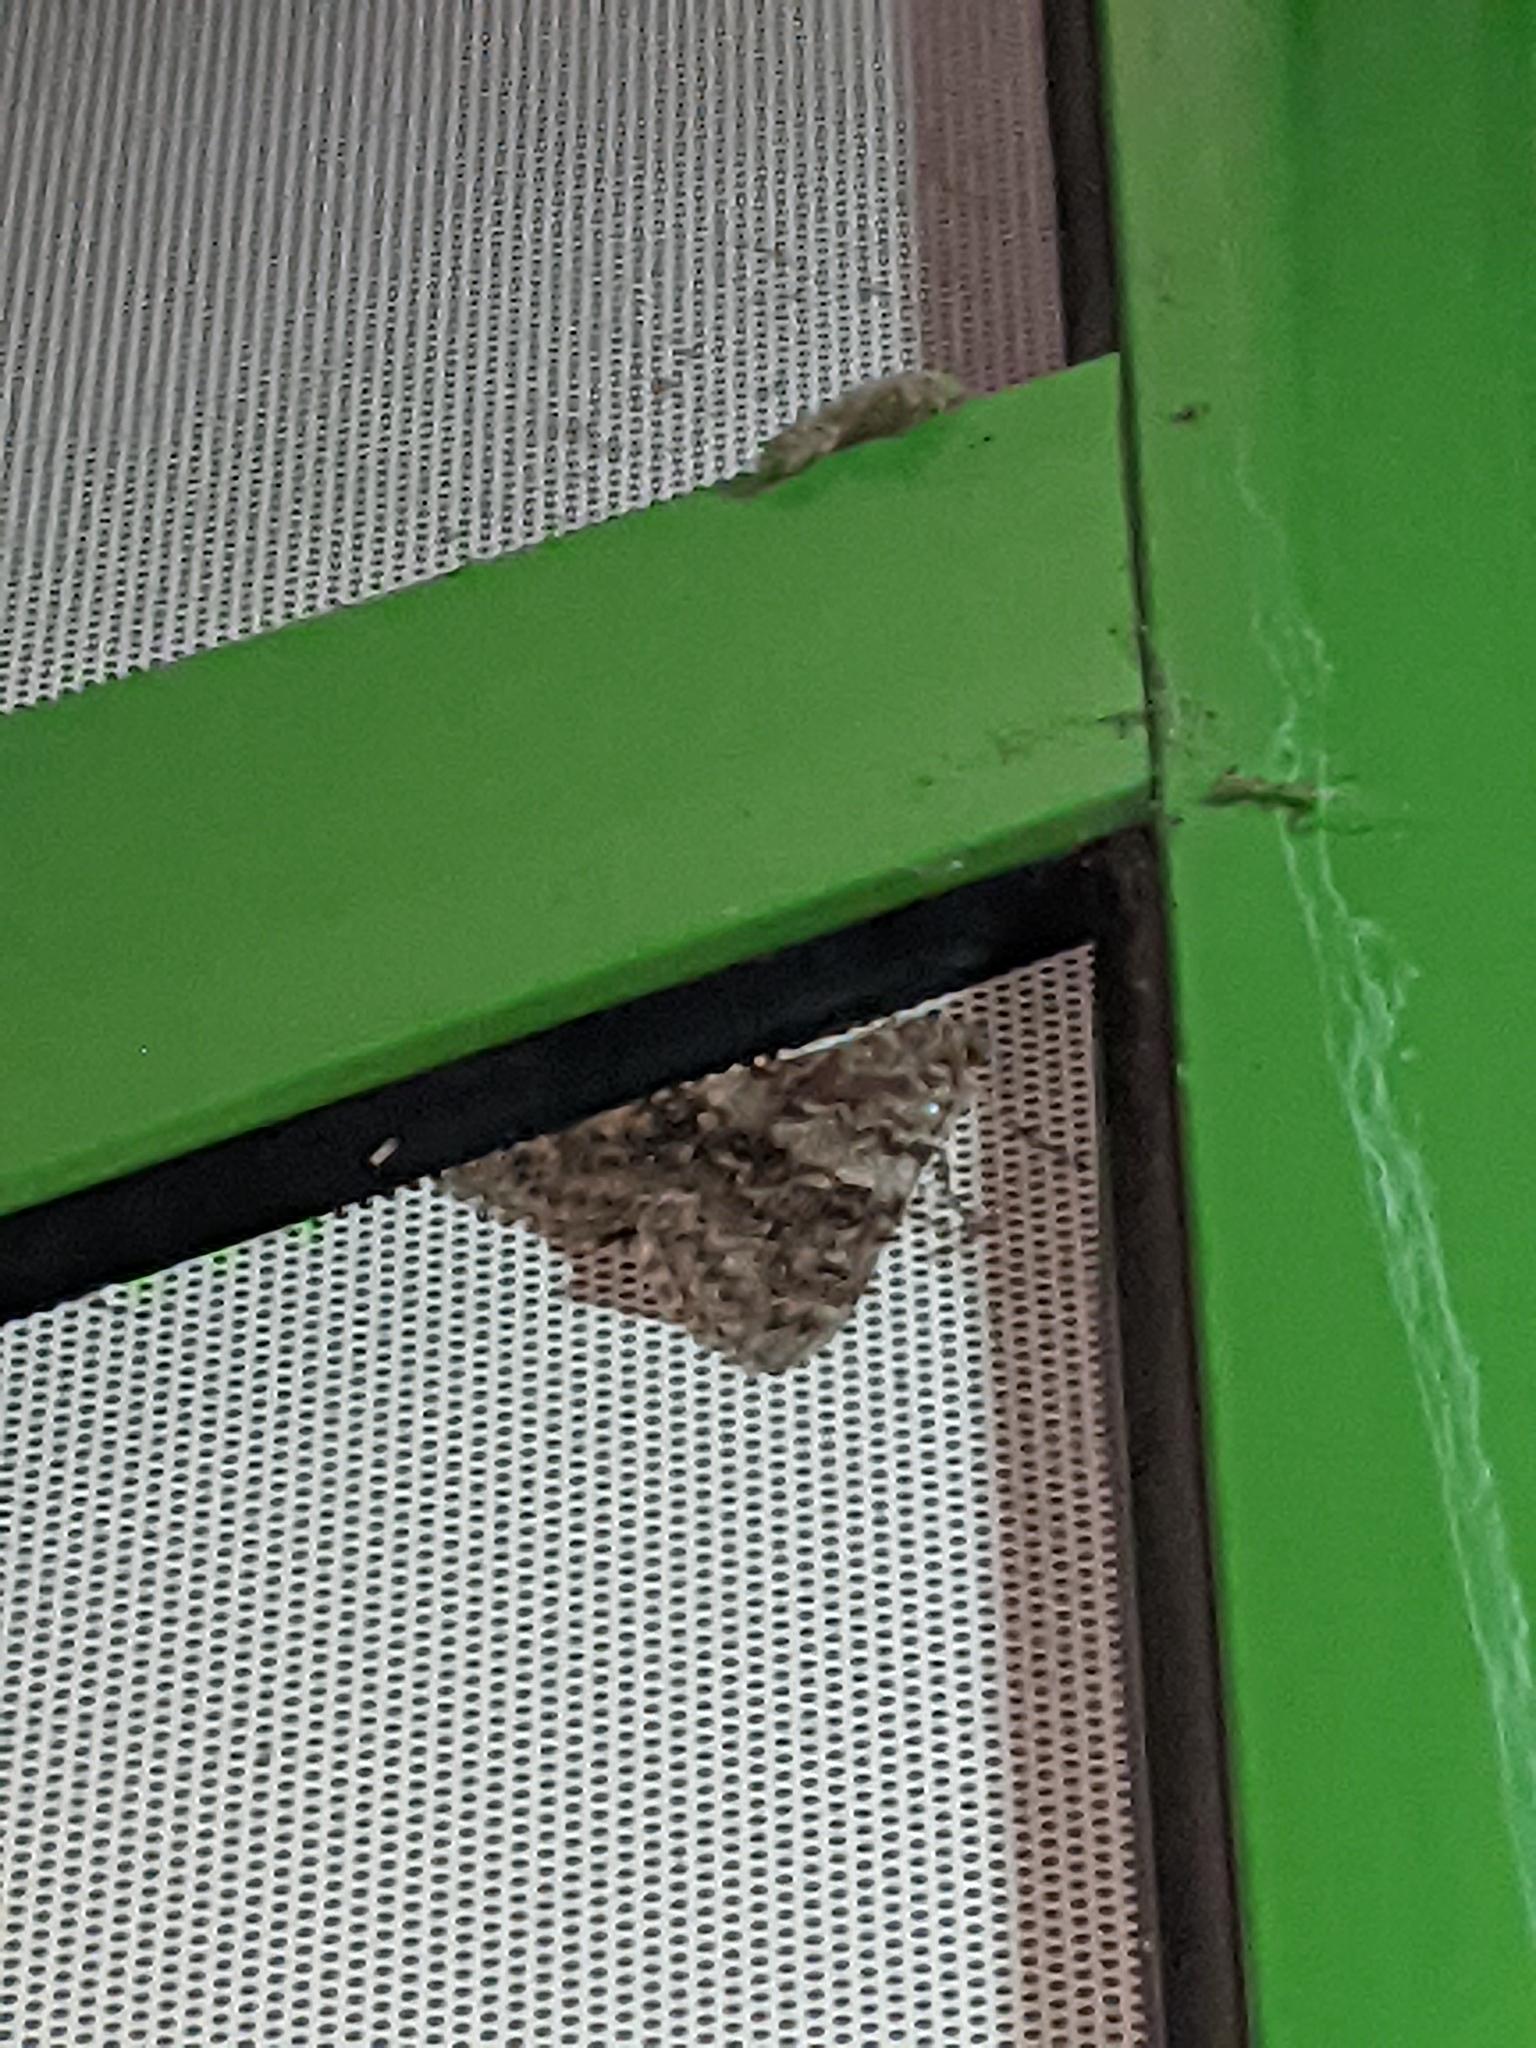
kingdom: Animalia
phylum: Arthropoda
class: Insecta
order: Lepidoptera
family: Erebidae
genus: Catocala
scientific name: Catocala nupta
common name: Red underwing
